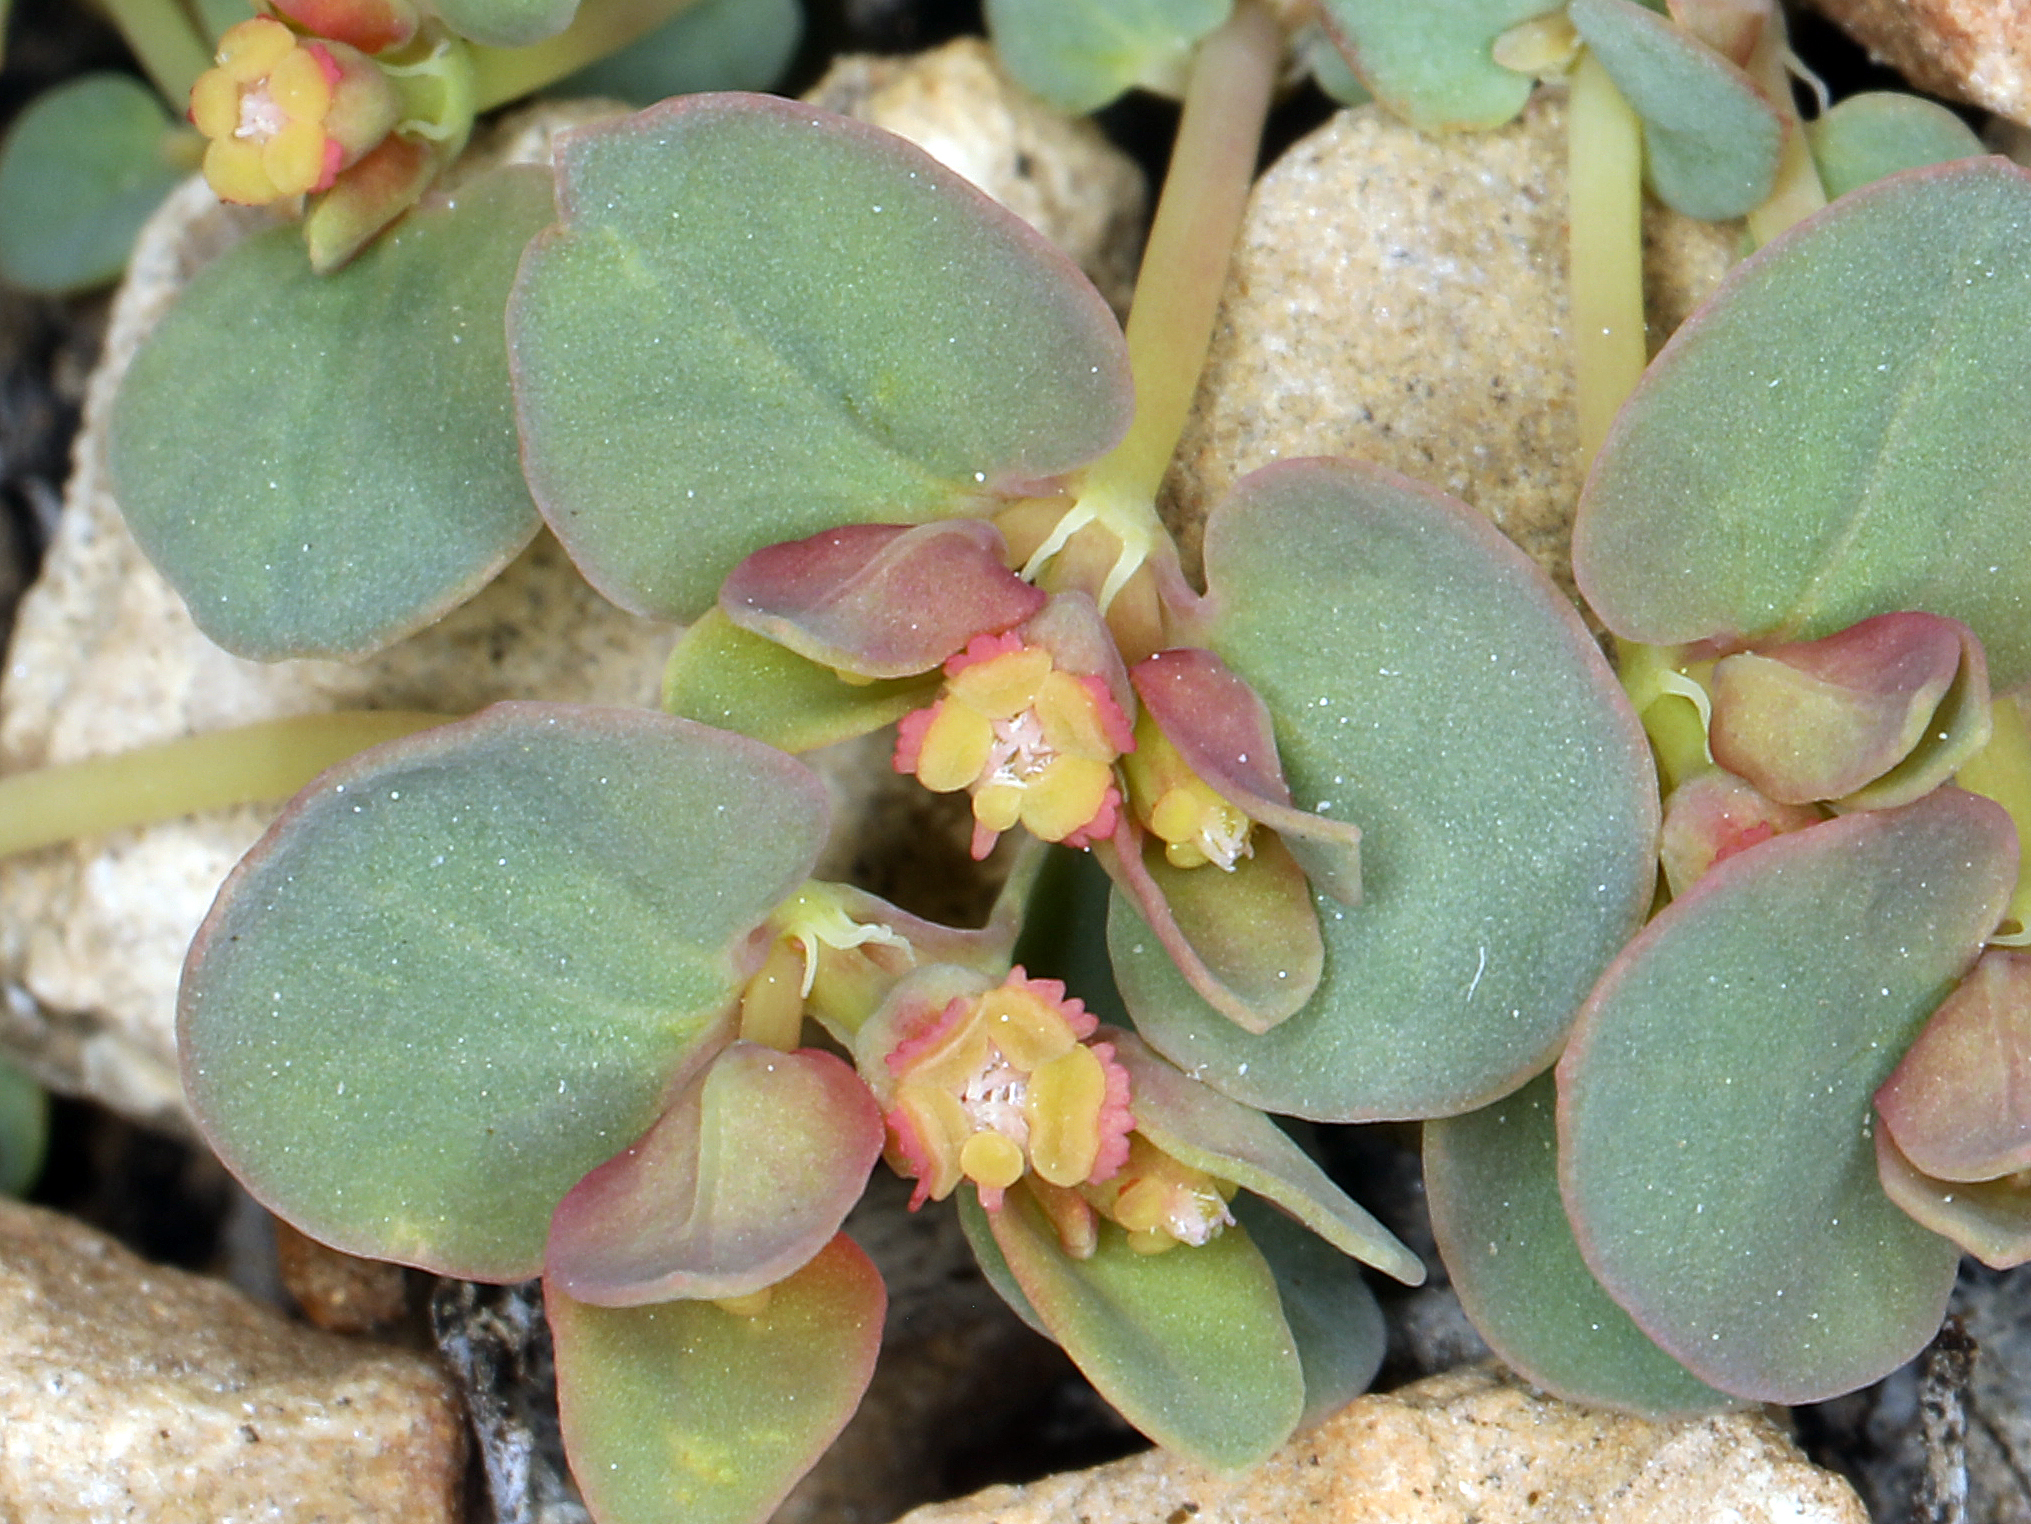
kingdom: Plantae
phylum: Tracheophyta
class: Magnoliopsida
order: Malpighiales
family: Euphorbiaceae
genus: Euphorbia
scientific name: Euphorbia fendleri
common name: Fendler's euphorbia
